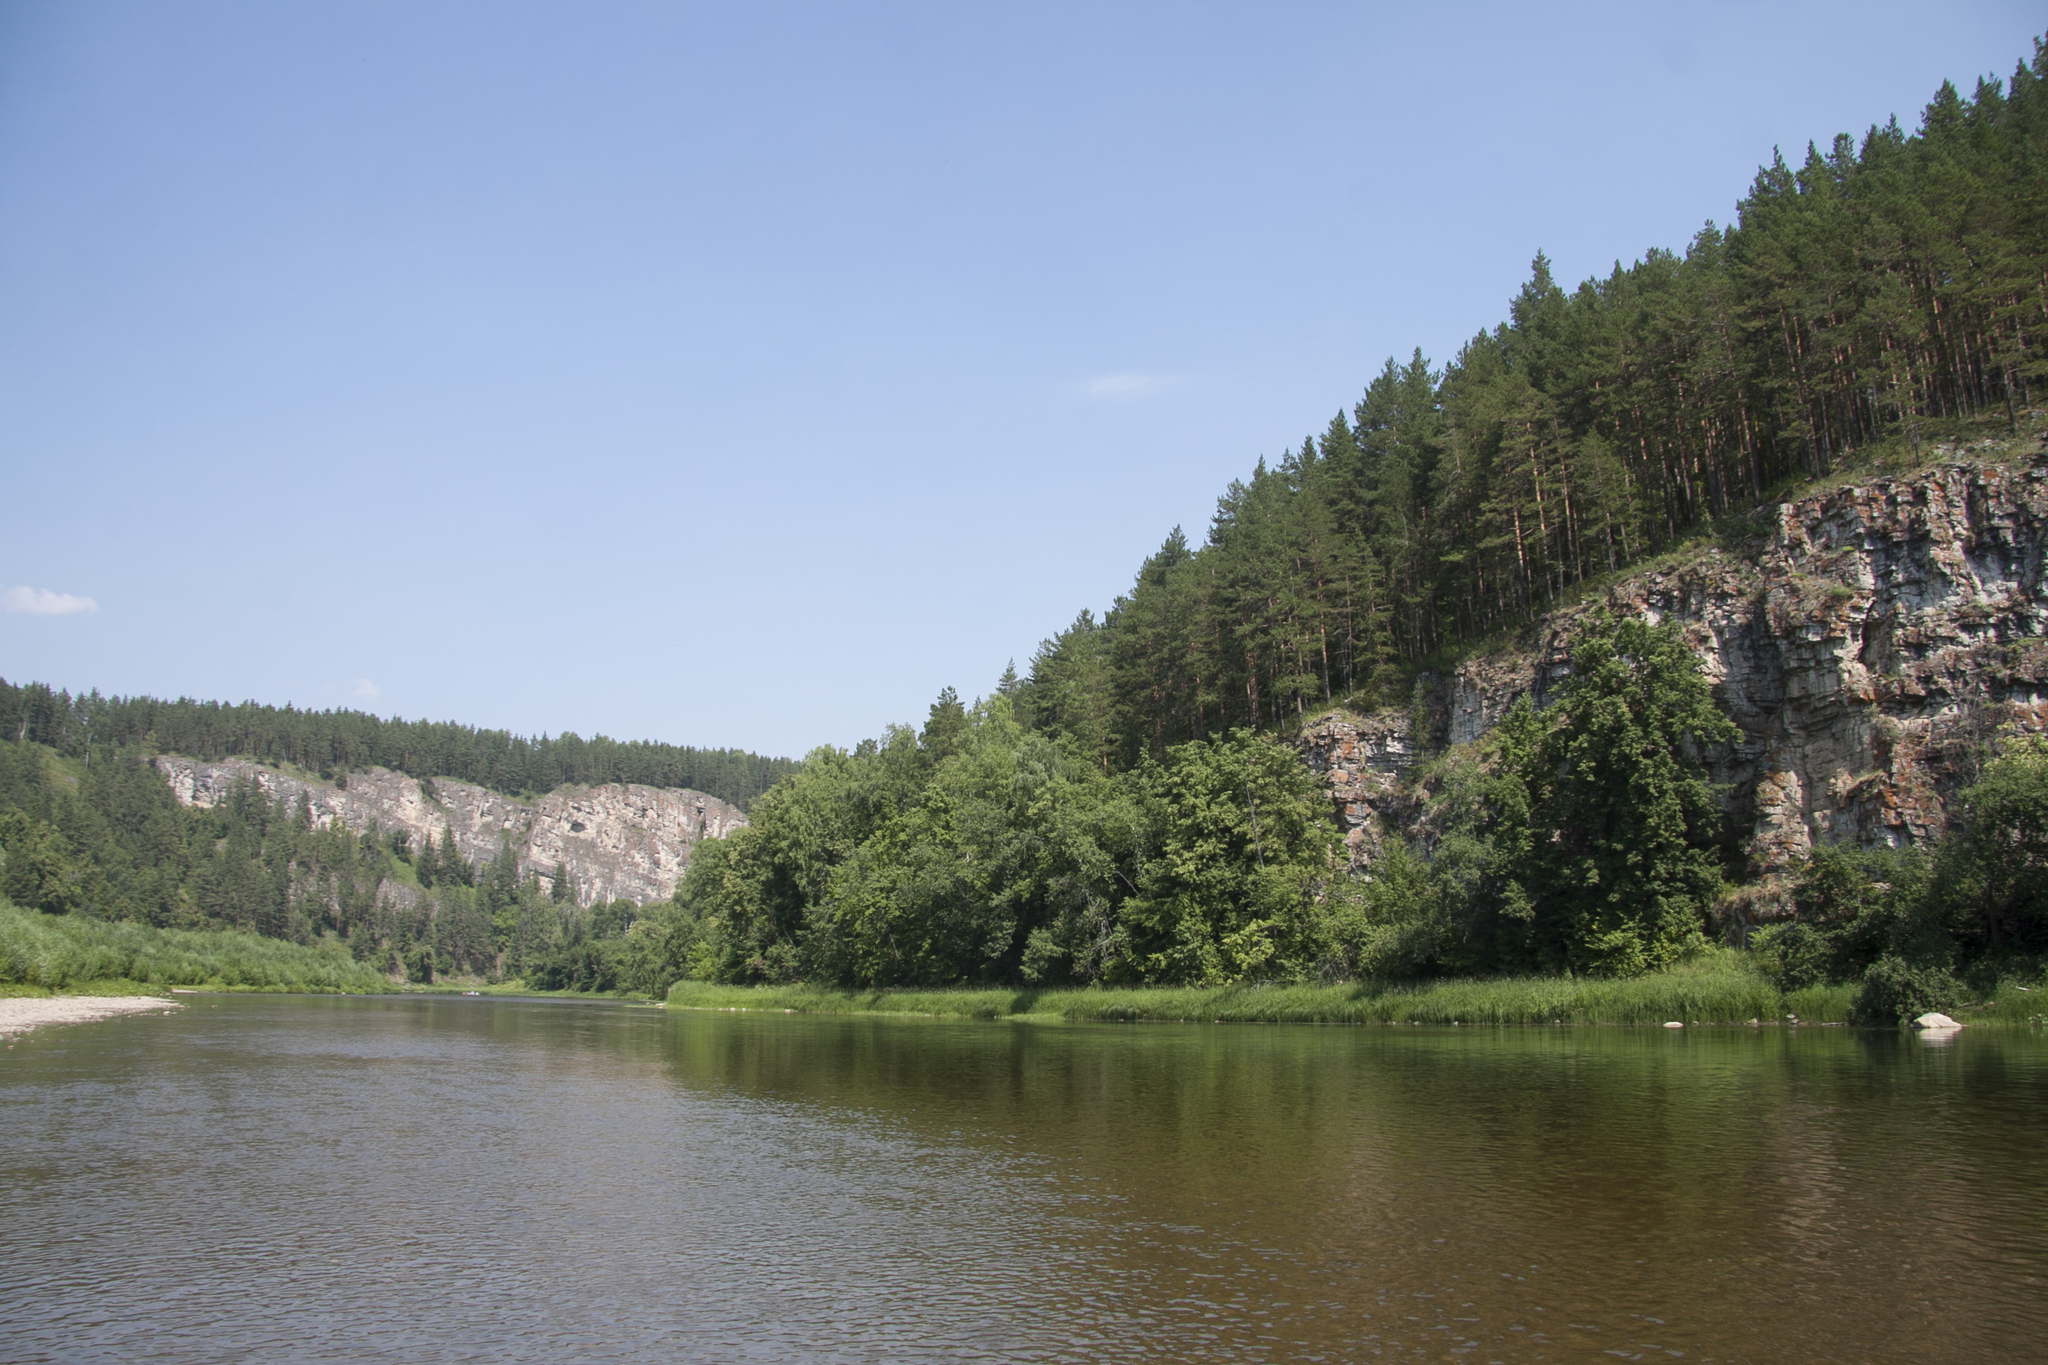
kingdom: Plantae
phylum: Tracheophyta
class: Pinopsida
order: Pinales
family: Pinaceae
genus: Pinus
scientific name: Pinus sylvestris
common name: Scots pine
